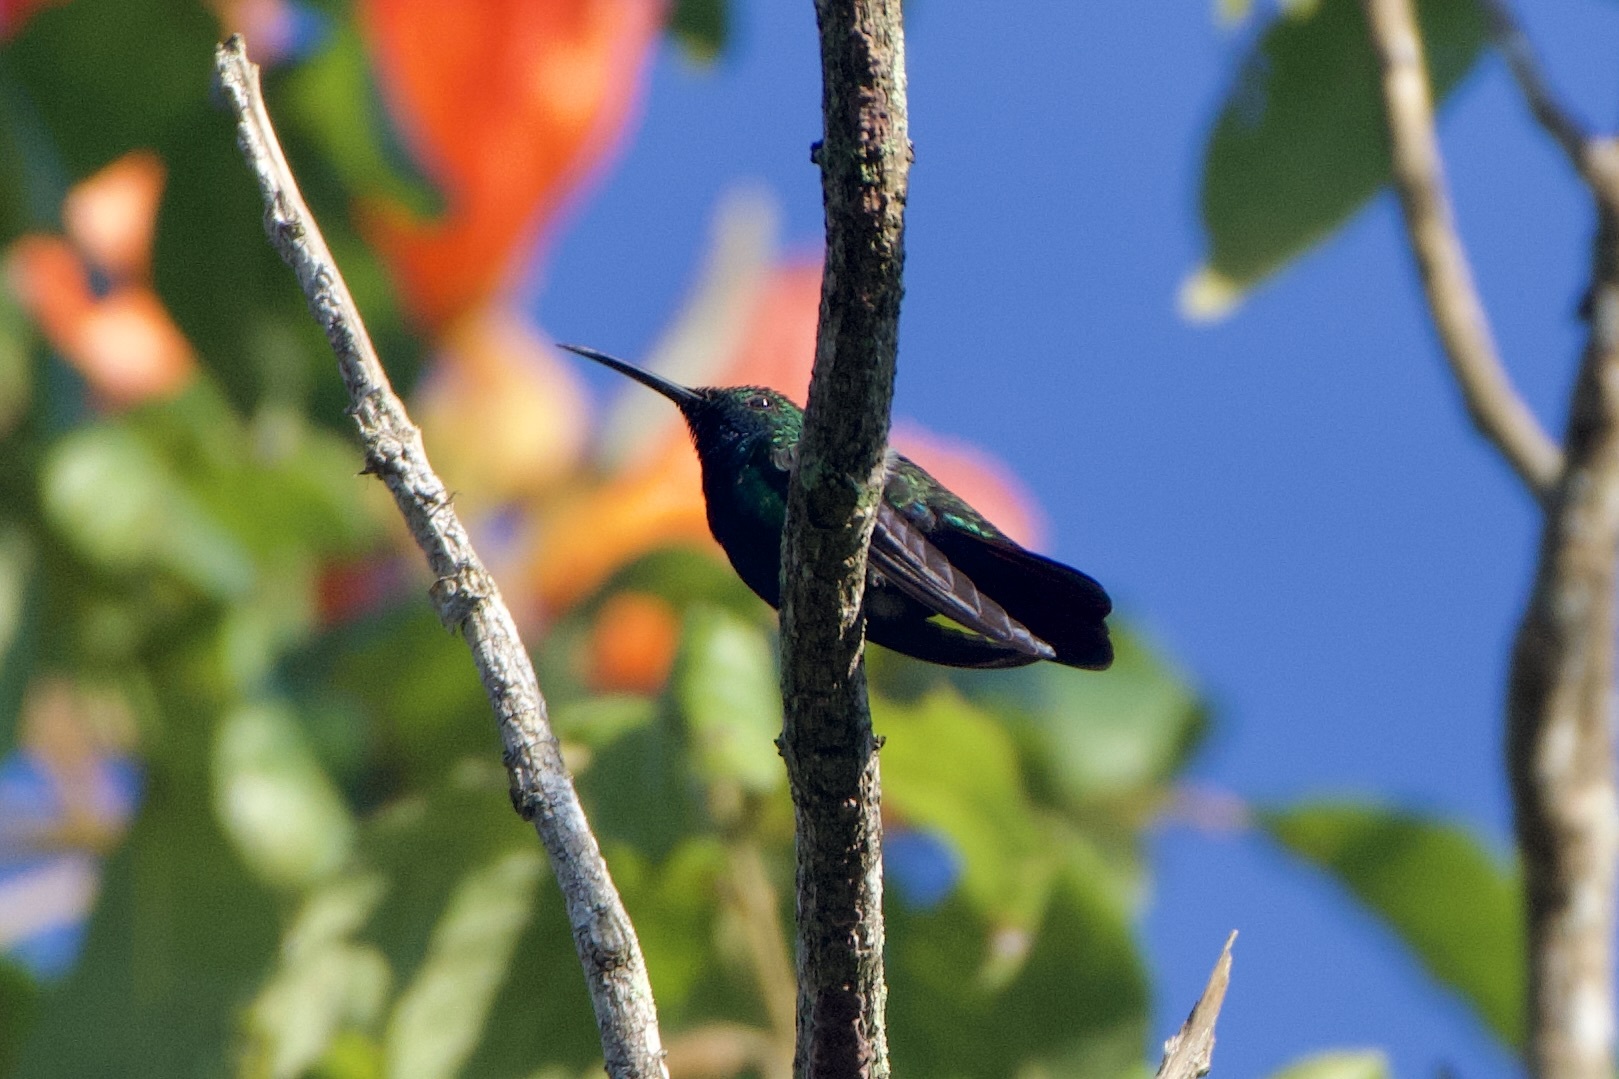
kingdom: Animalia
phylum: Chordata
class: Aves
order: Apodiformes
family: Trochilidae
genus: Anthracothorax
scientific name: Anthracothorax nigricollis
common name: Black-throated mango
